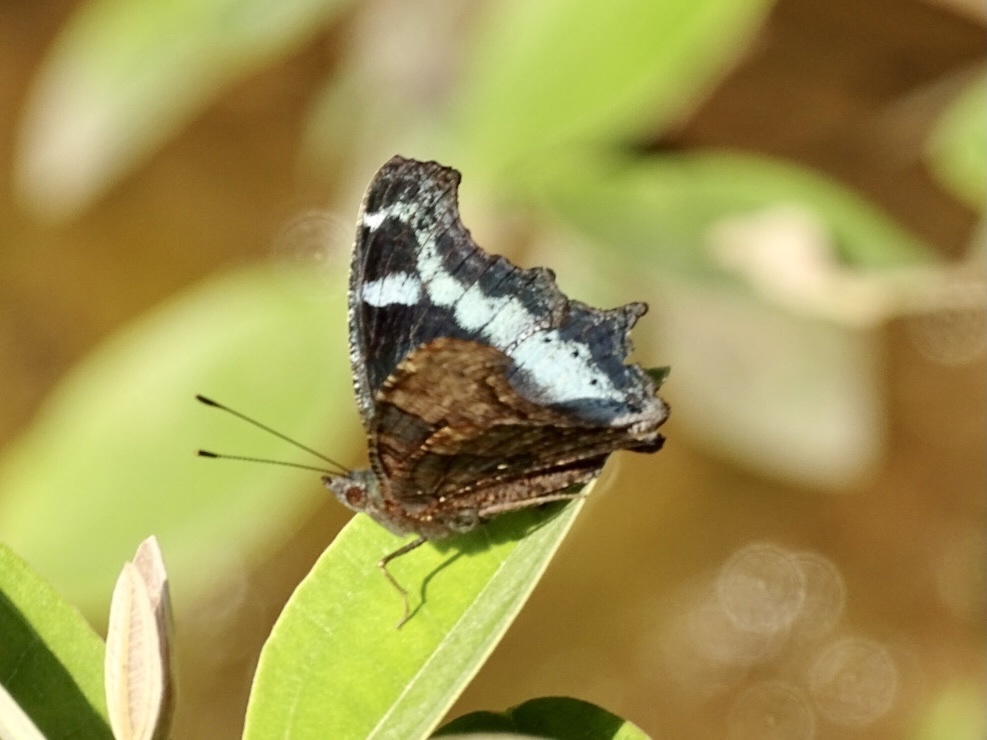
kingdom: Animalia
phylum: Arthropoda
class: Insecta
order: Lepidoptera
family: Nymphalidae
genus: Vanessa
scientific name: Vanessa Kaniska canace
